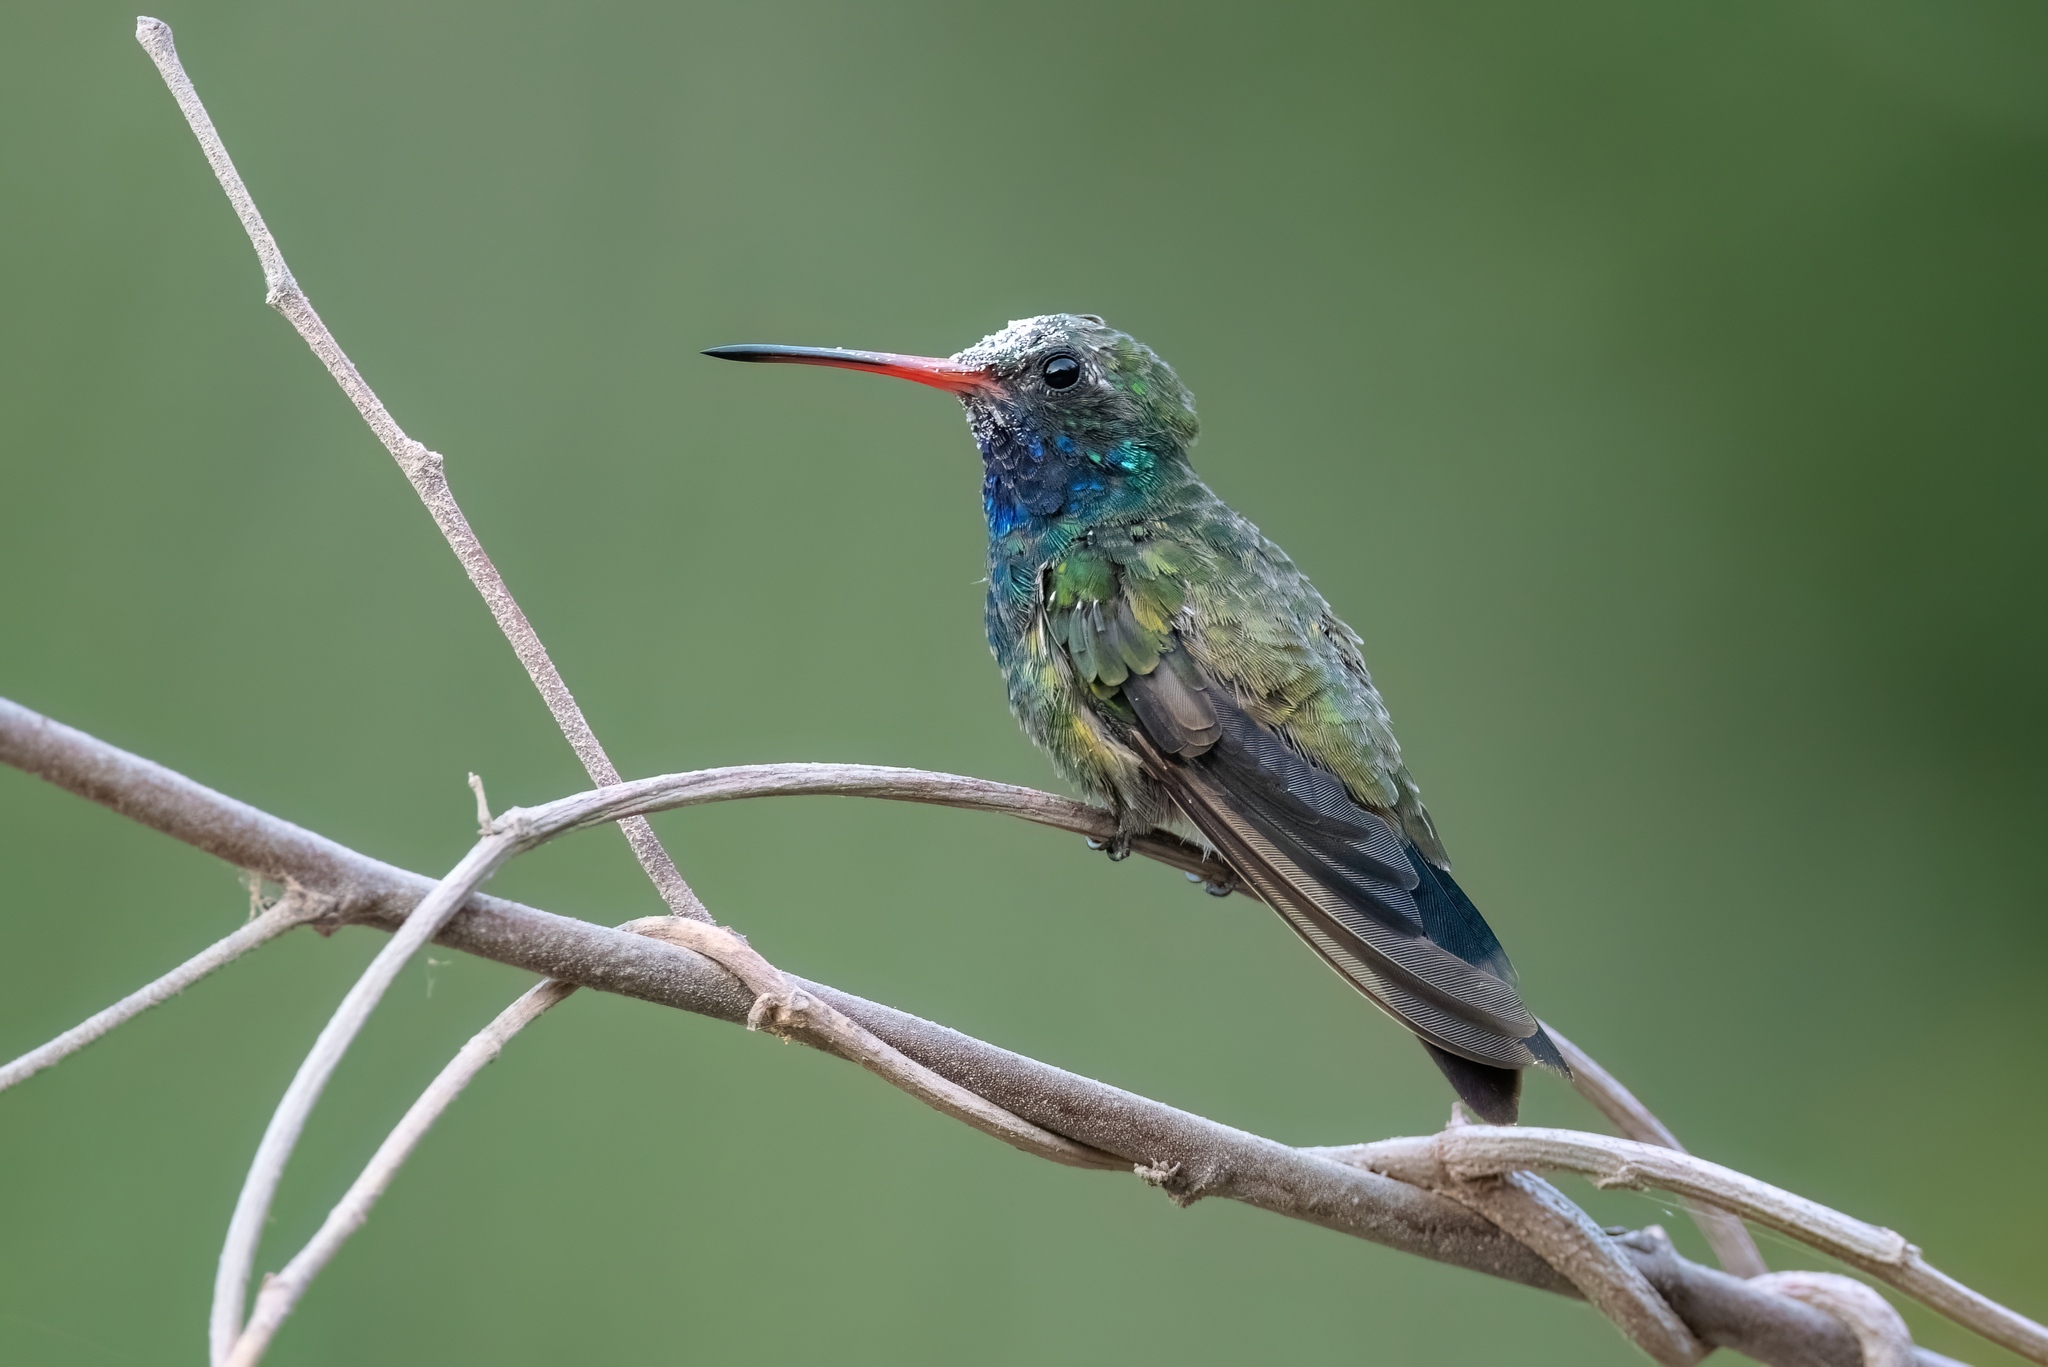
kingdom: Animalia
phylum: Chordata
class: Aves
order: Apodiformes
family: Trochilidae
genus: Cynanthus
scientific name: Cynanthus latirostris
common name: Broad-billed hummingbird
